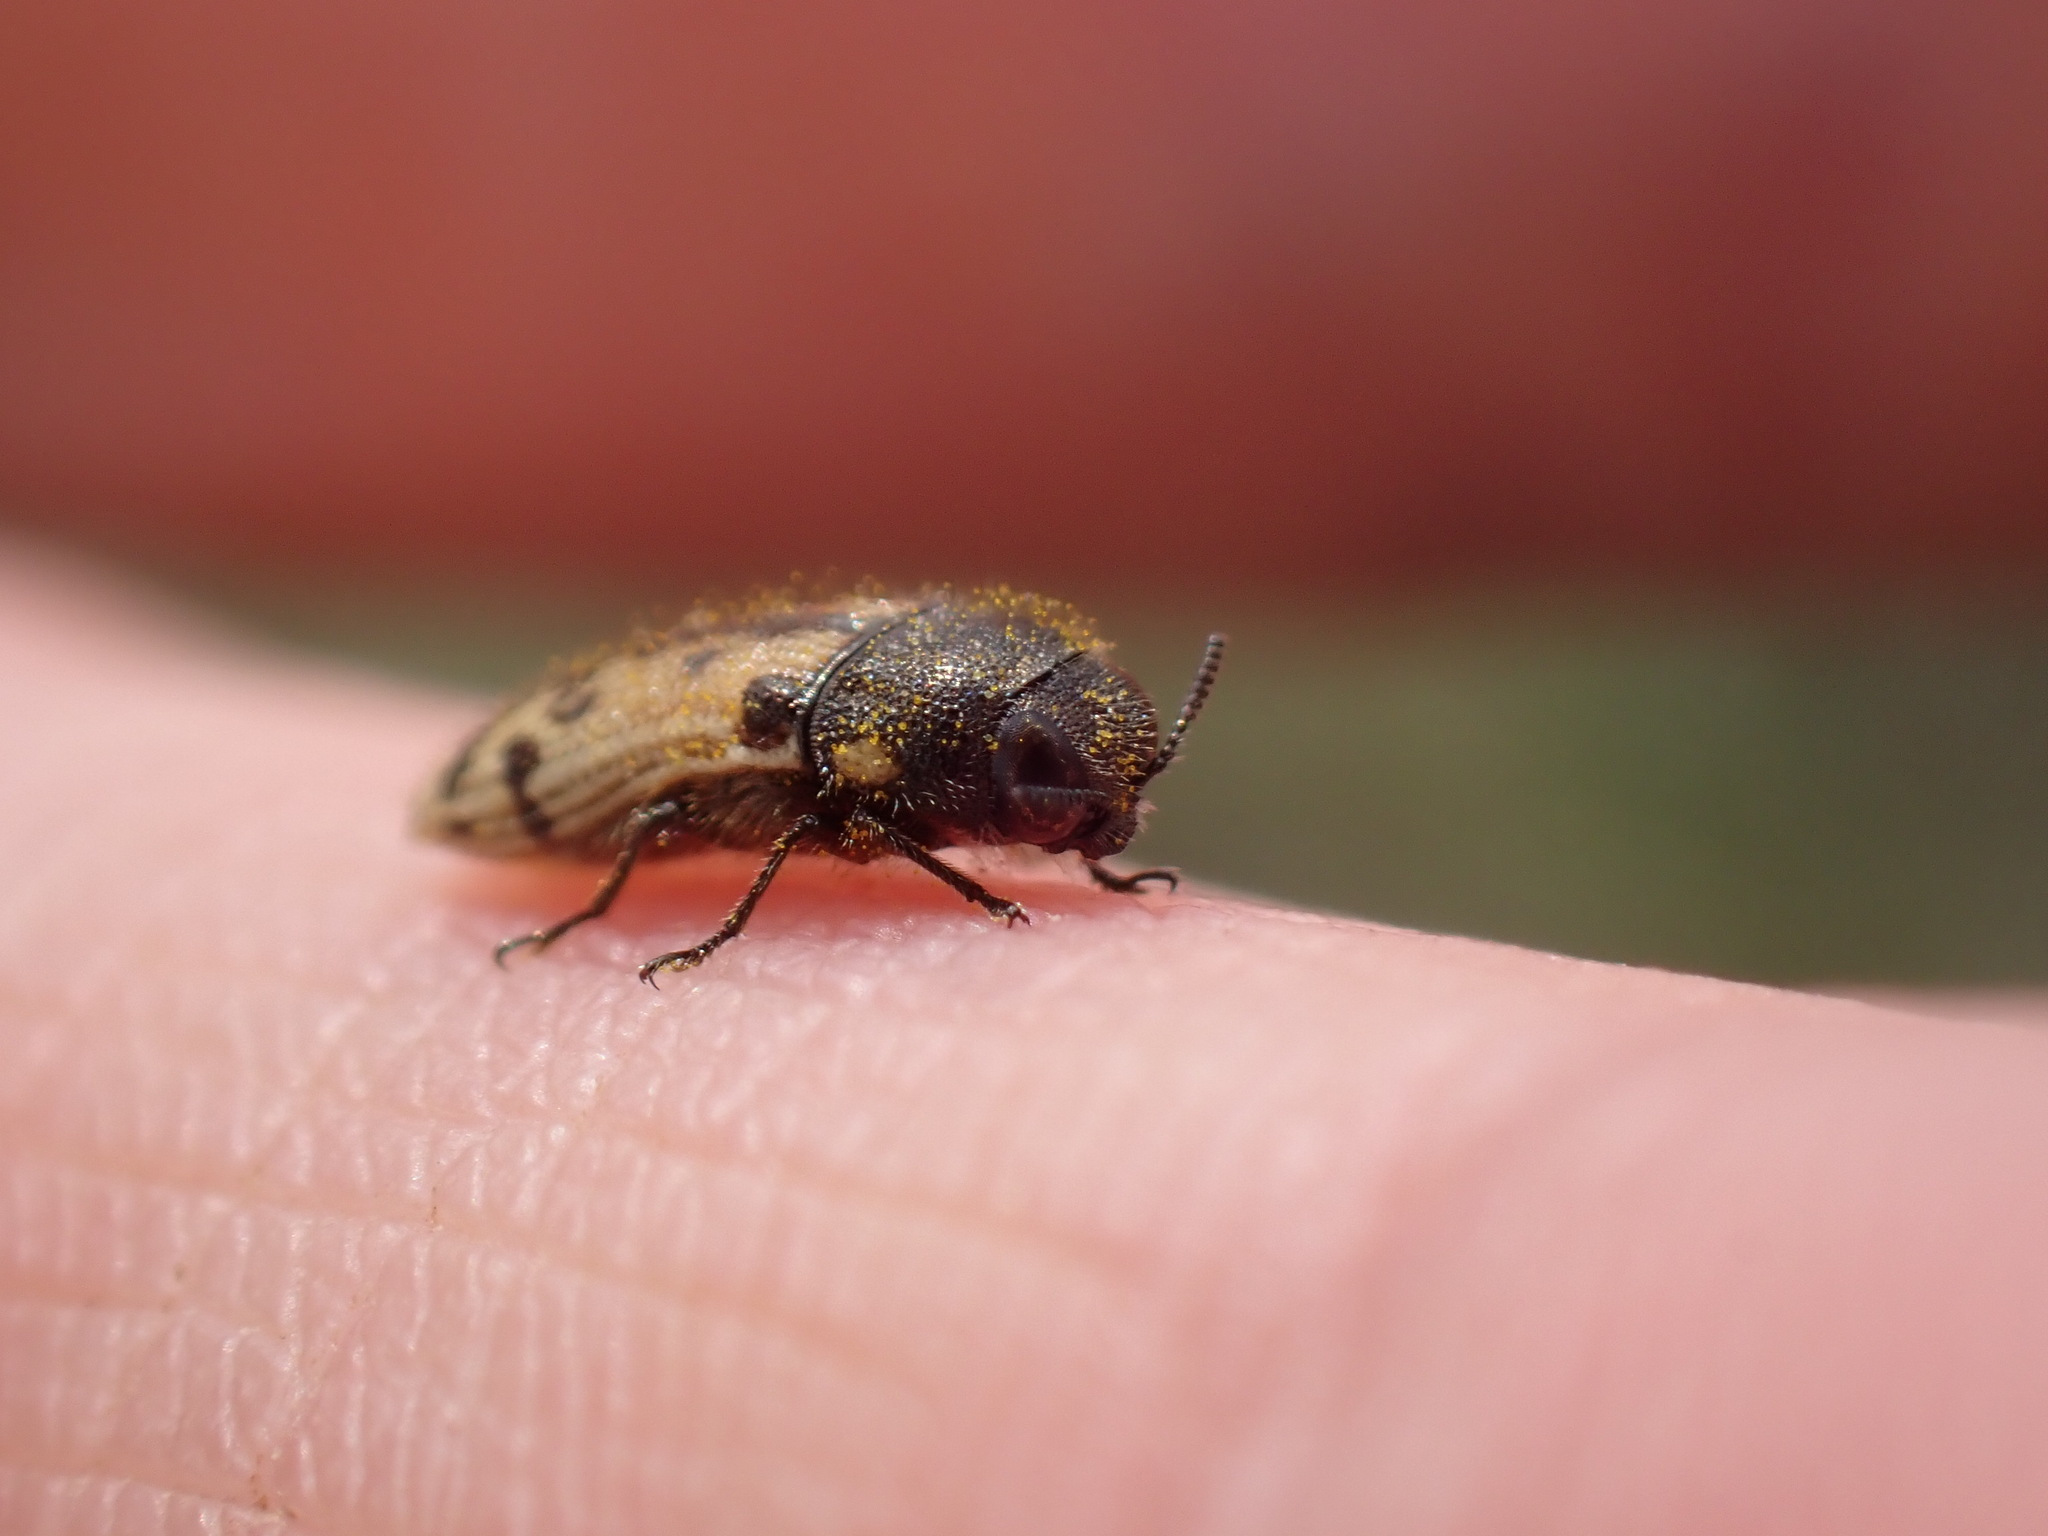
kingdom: Animalia
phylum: Arthropoda
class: Insecta
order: Coleoptera
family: Buprestidae
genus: Acmaeodera
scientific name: Acmaeodera immaculata
